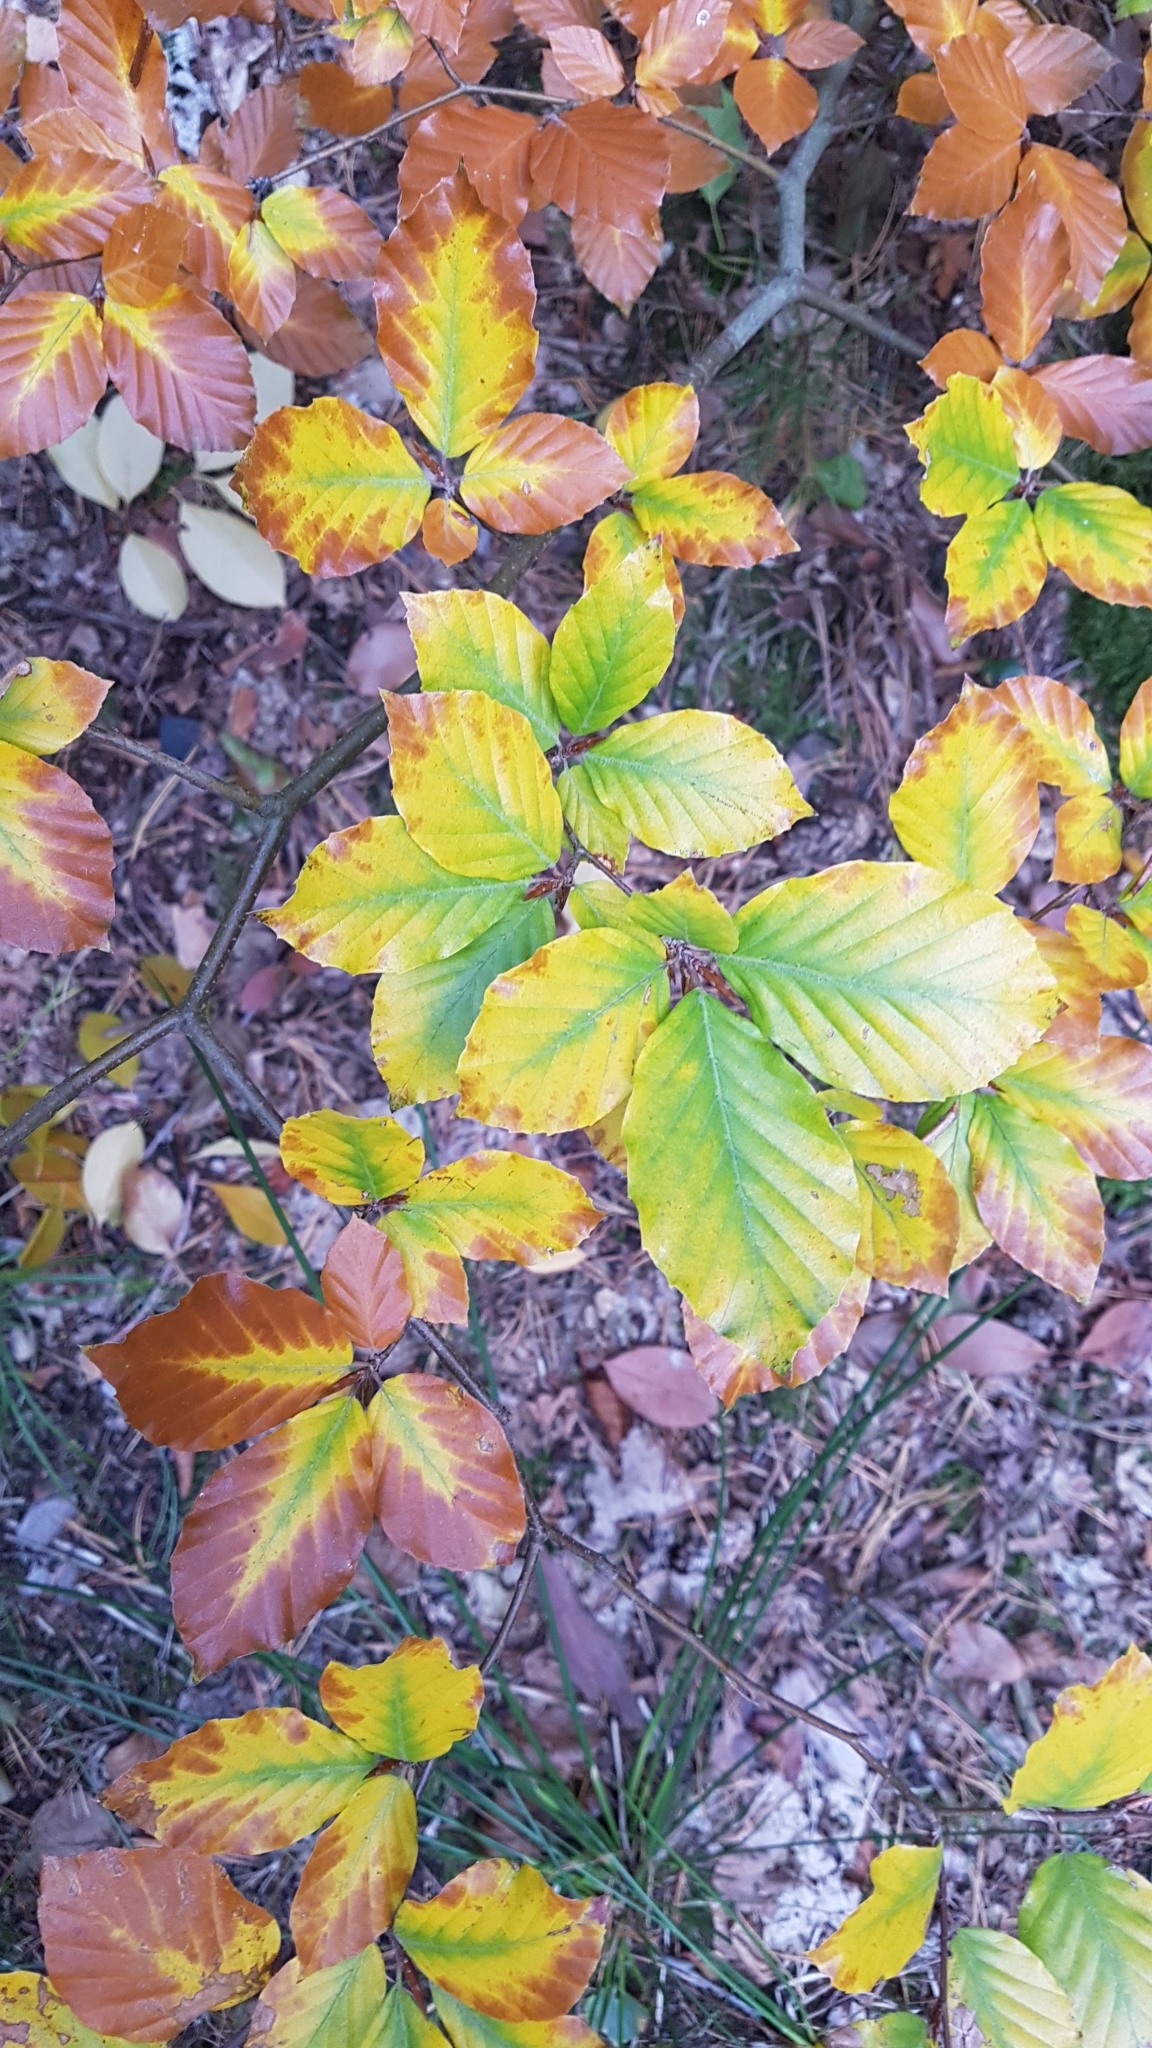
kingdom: Plantae
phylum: Tracheophyta
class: Magnoliopsida
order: Fagales
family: Fagaceae
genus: Fagus
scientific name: Fagus sylvatica
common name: Beech
